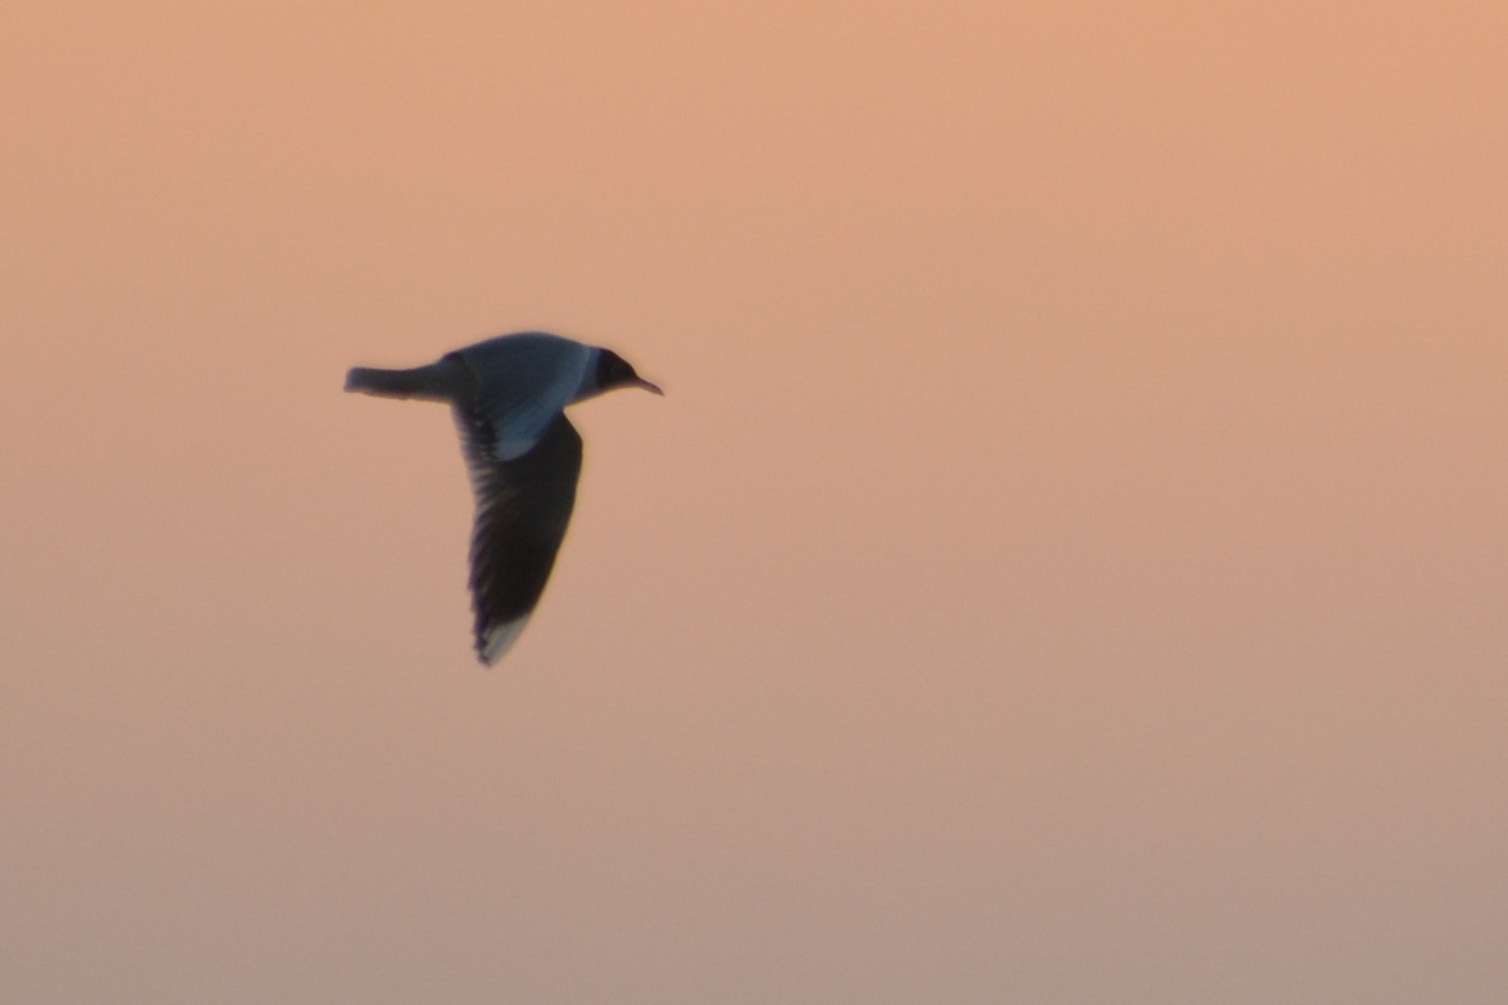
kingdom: Animalia
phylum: Chordata
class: Aves
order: Charadriiformes
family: Laridae
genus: Chroicocephalus
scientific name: Chroicocephalus maculipennis
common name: Brown-hooded gull
